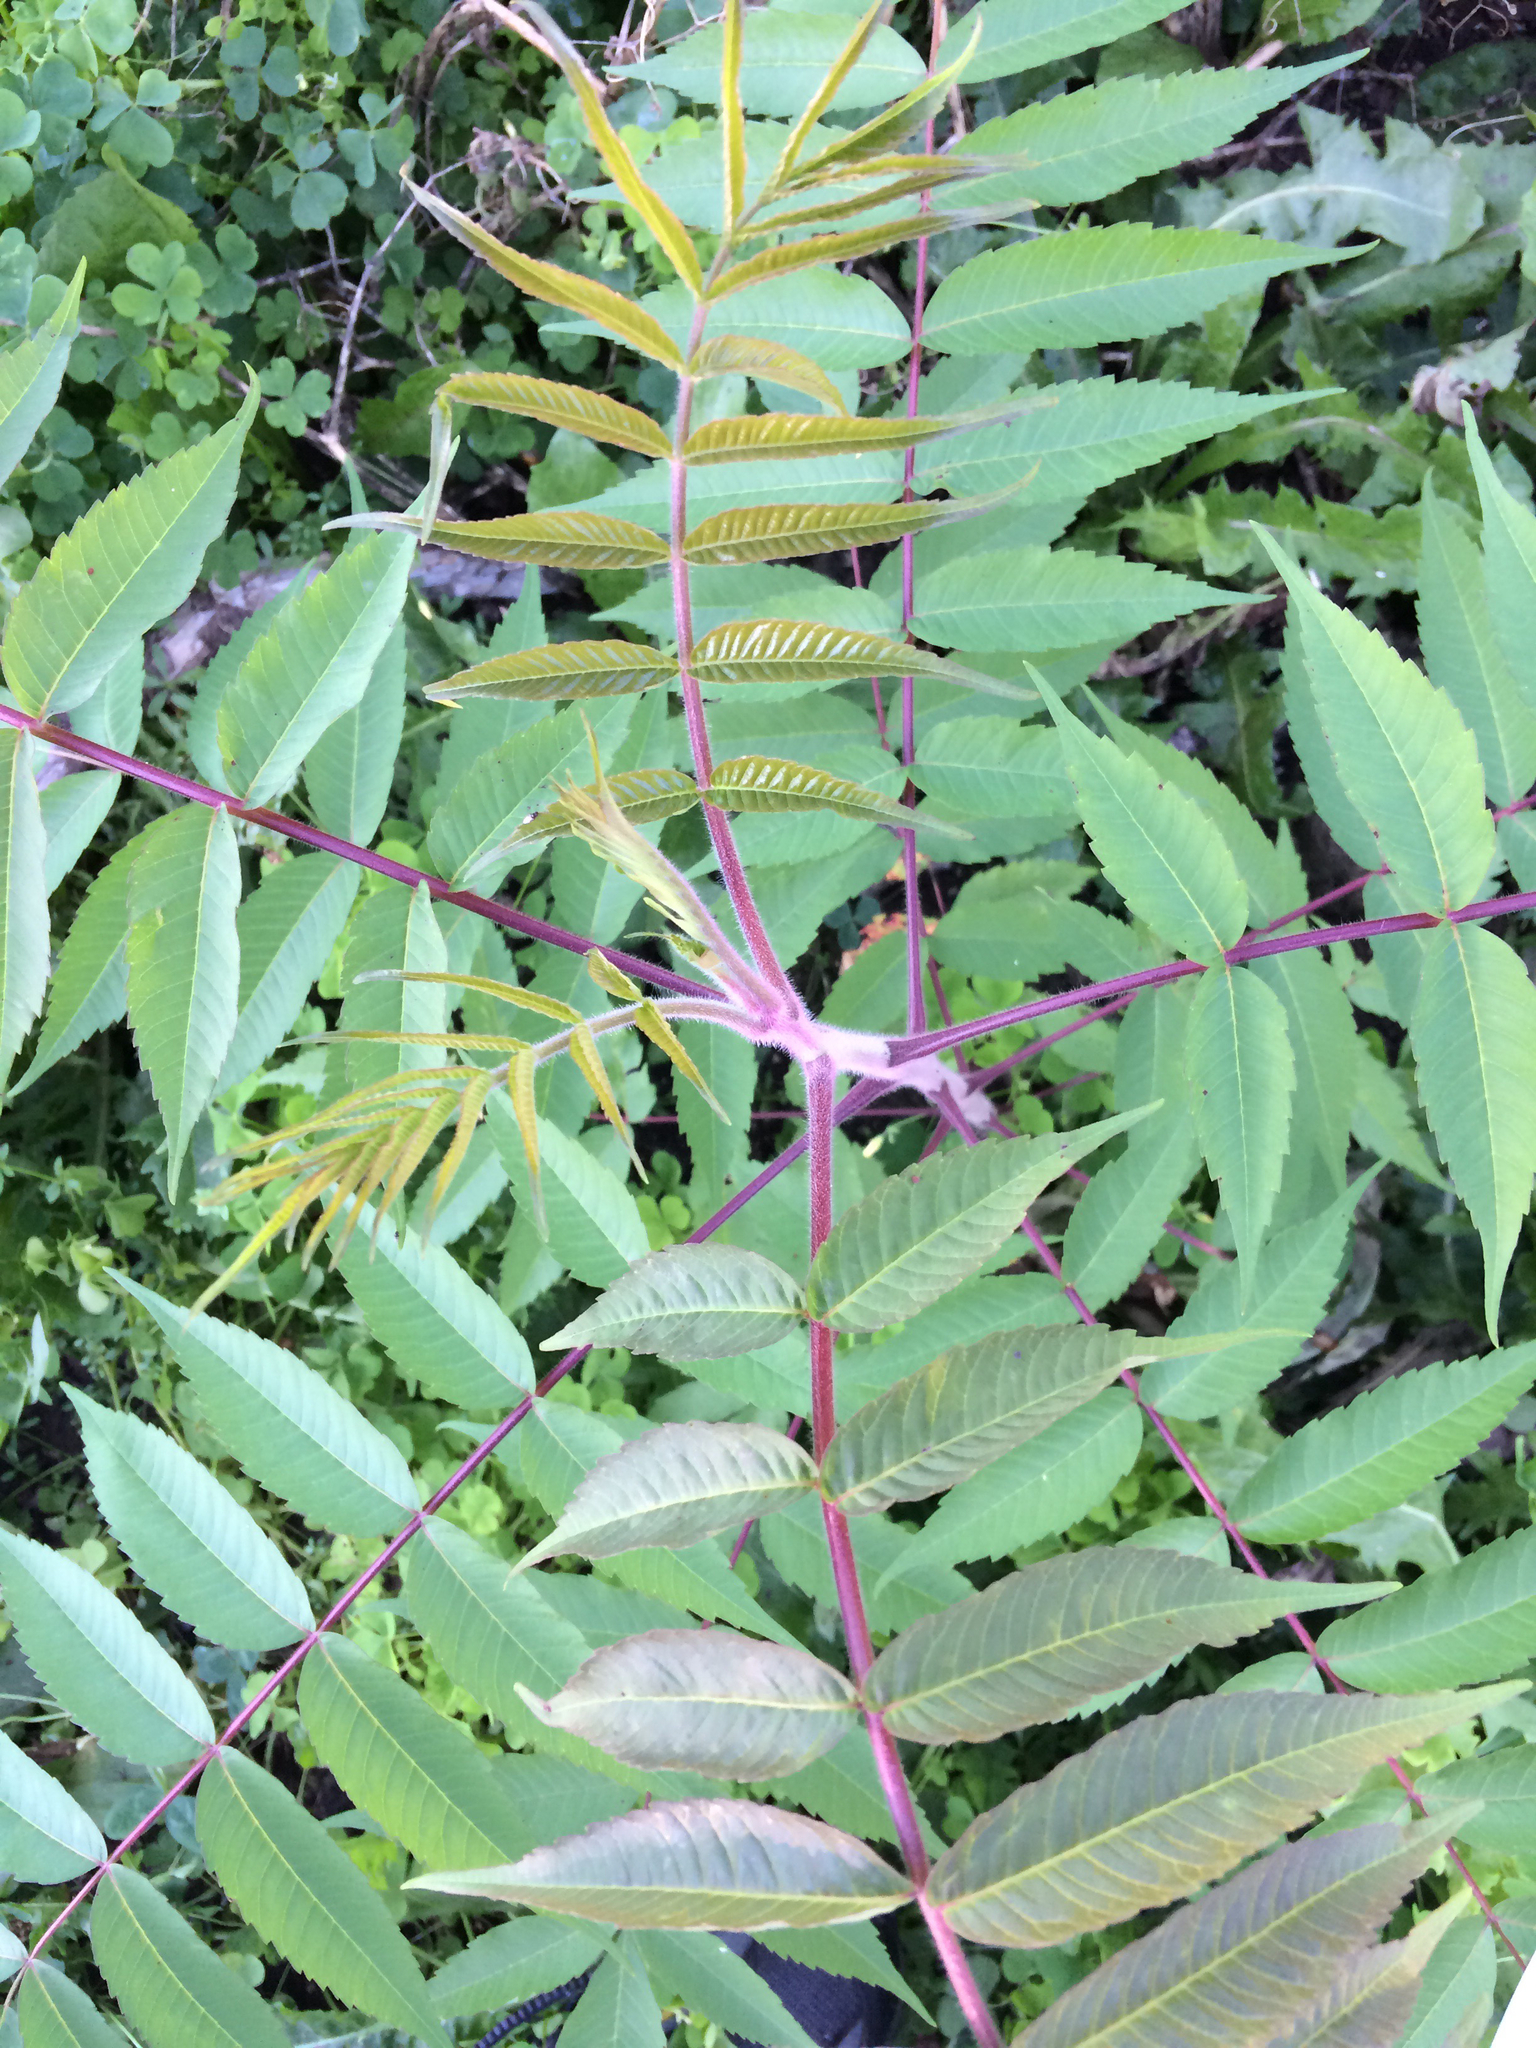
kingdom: Plantae
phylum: Tracheophyta
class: Magnoliopsida
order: Sapindales
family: Anacardiaceae
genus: Rhus
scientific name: Rhus typhina
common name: Staghorn sumac
